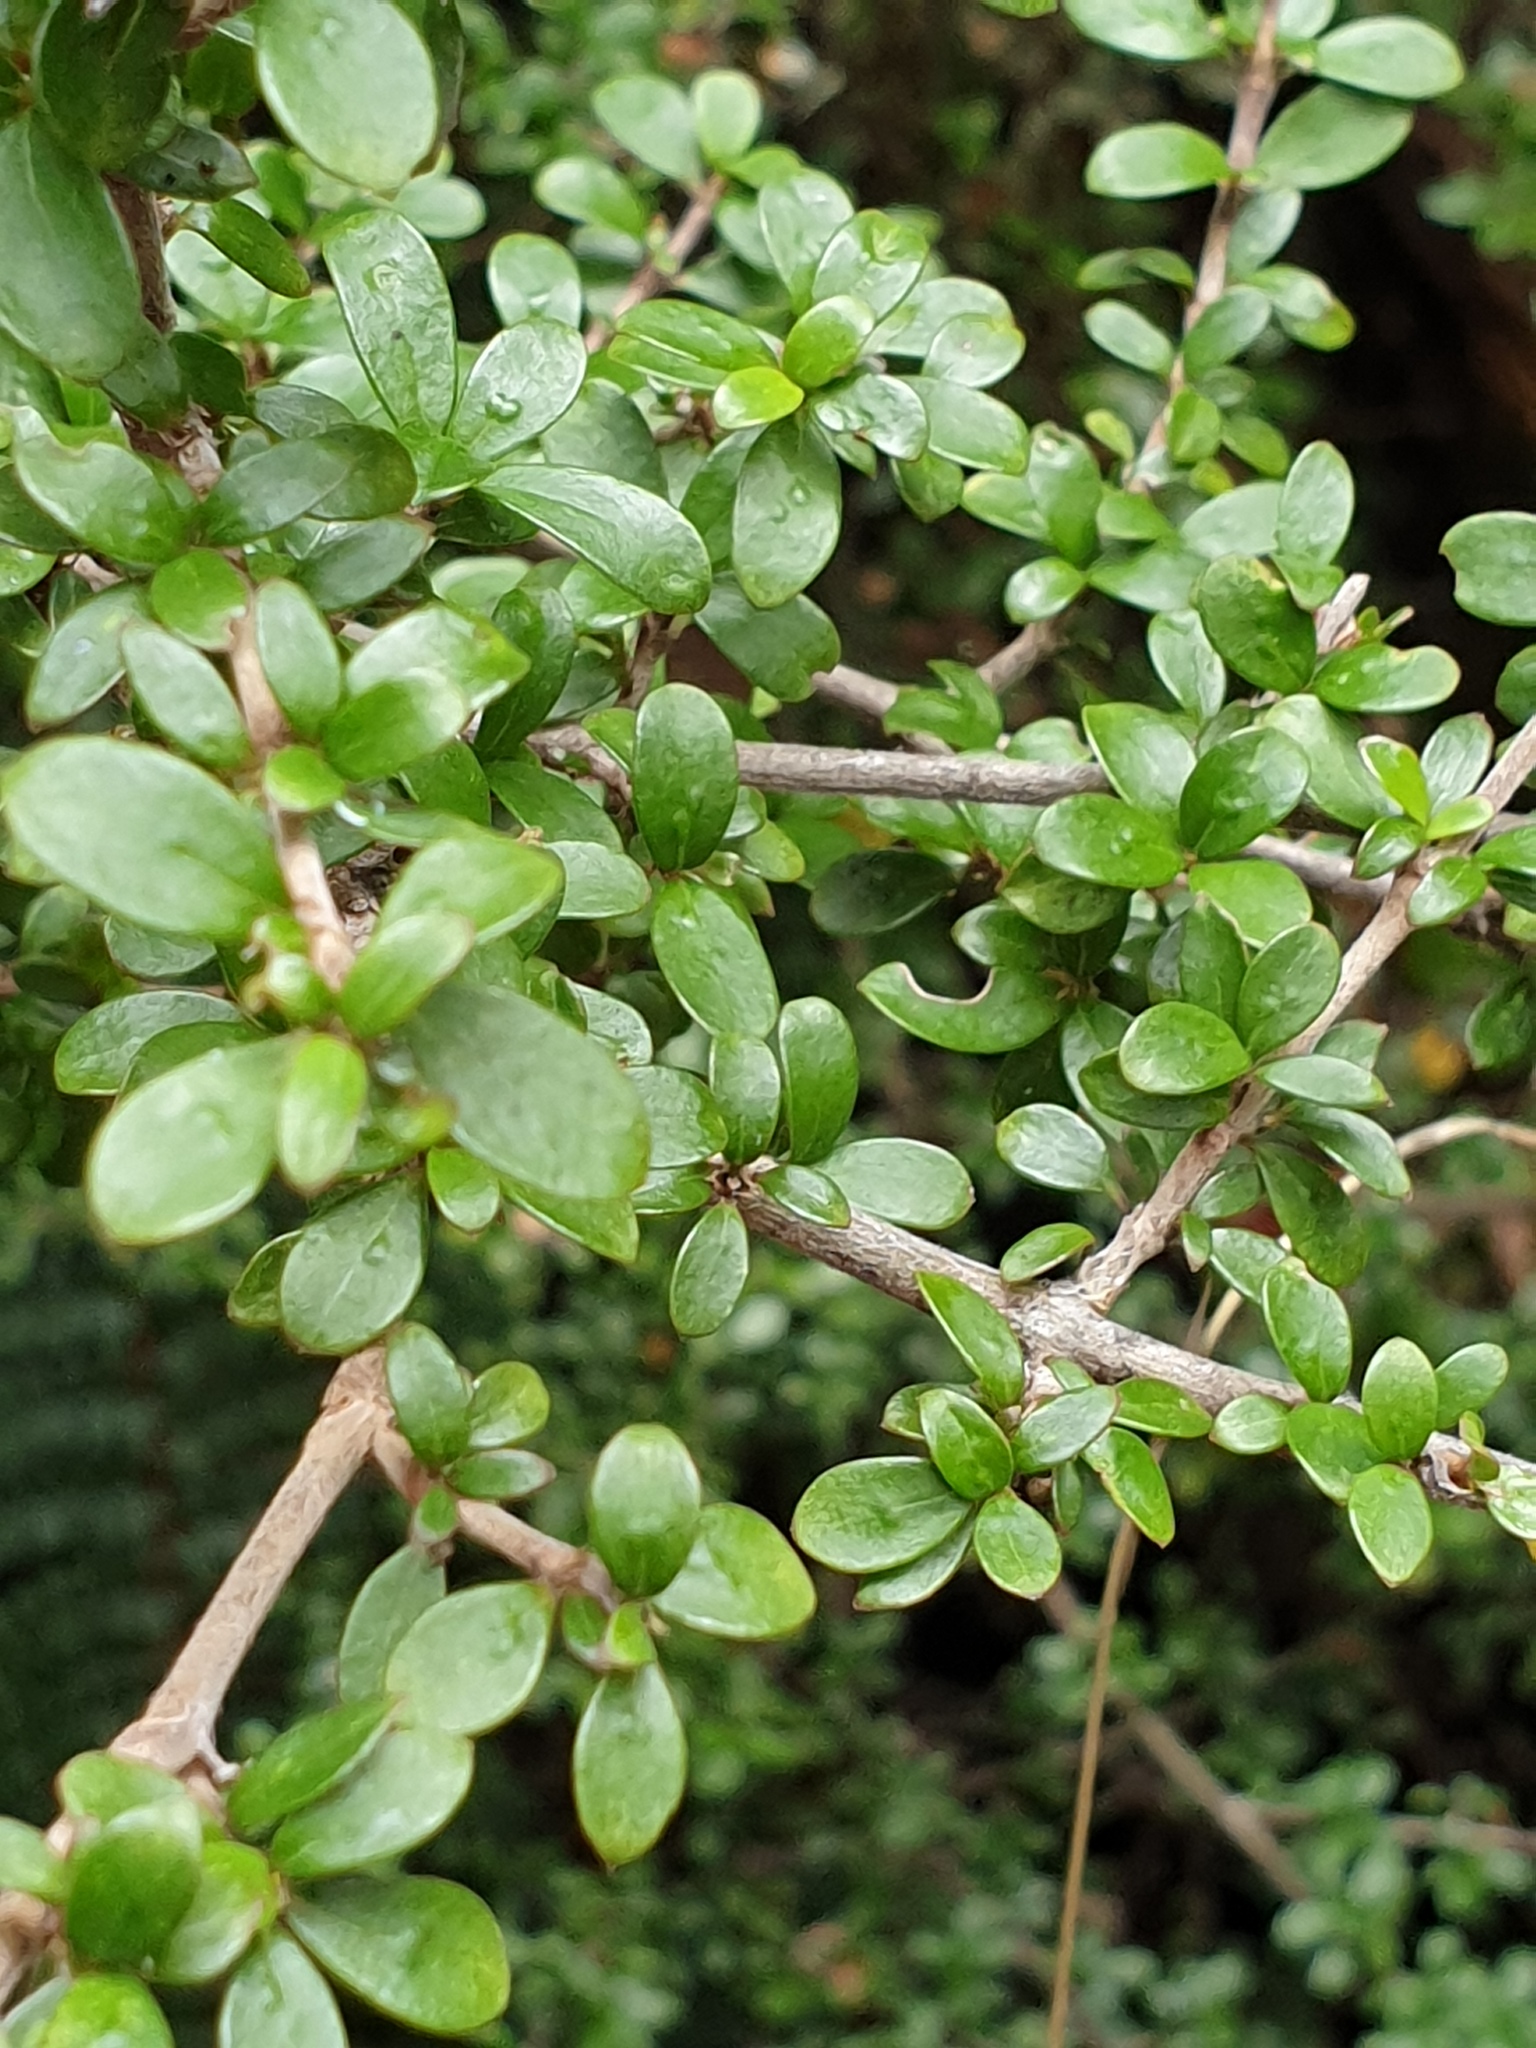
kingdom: Plantae
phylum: Tracheophyta
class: Magnoliopsida
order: Gentianales
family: Rubiaceae
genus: Coprosma
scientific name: Coprosma dumosa
